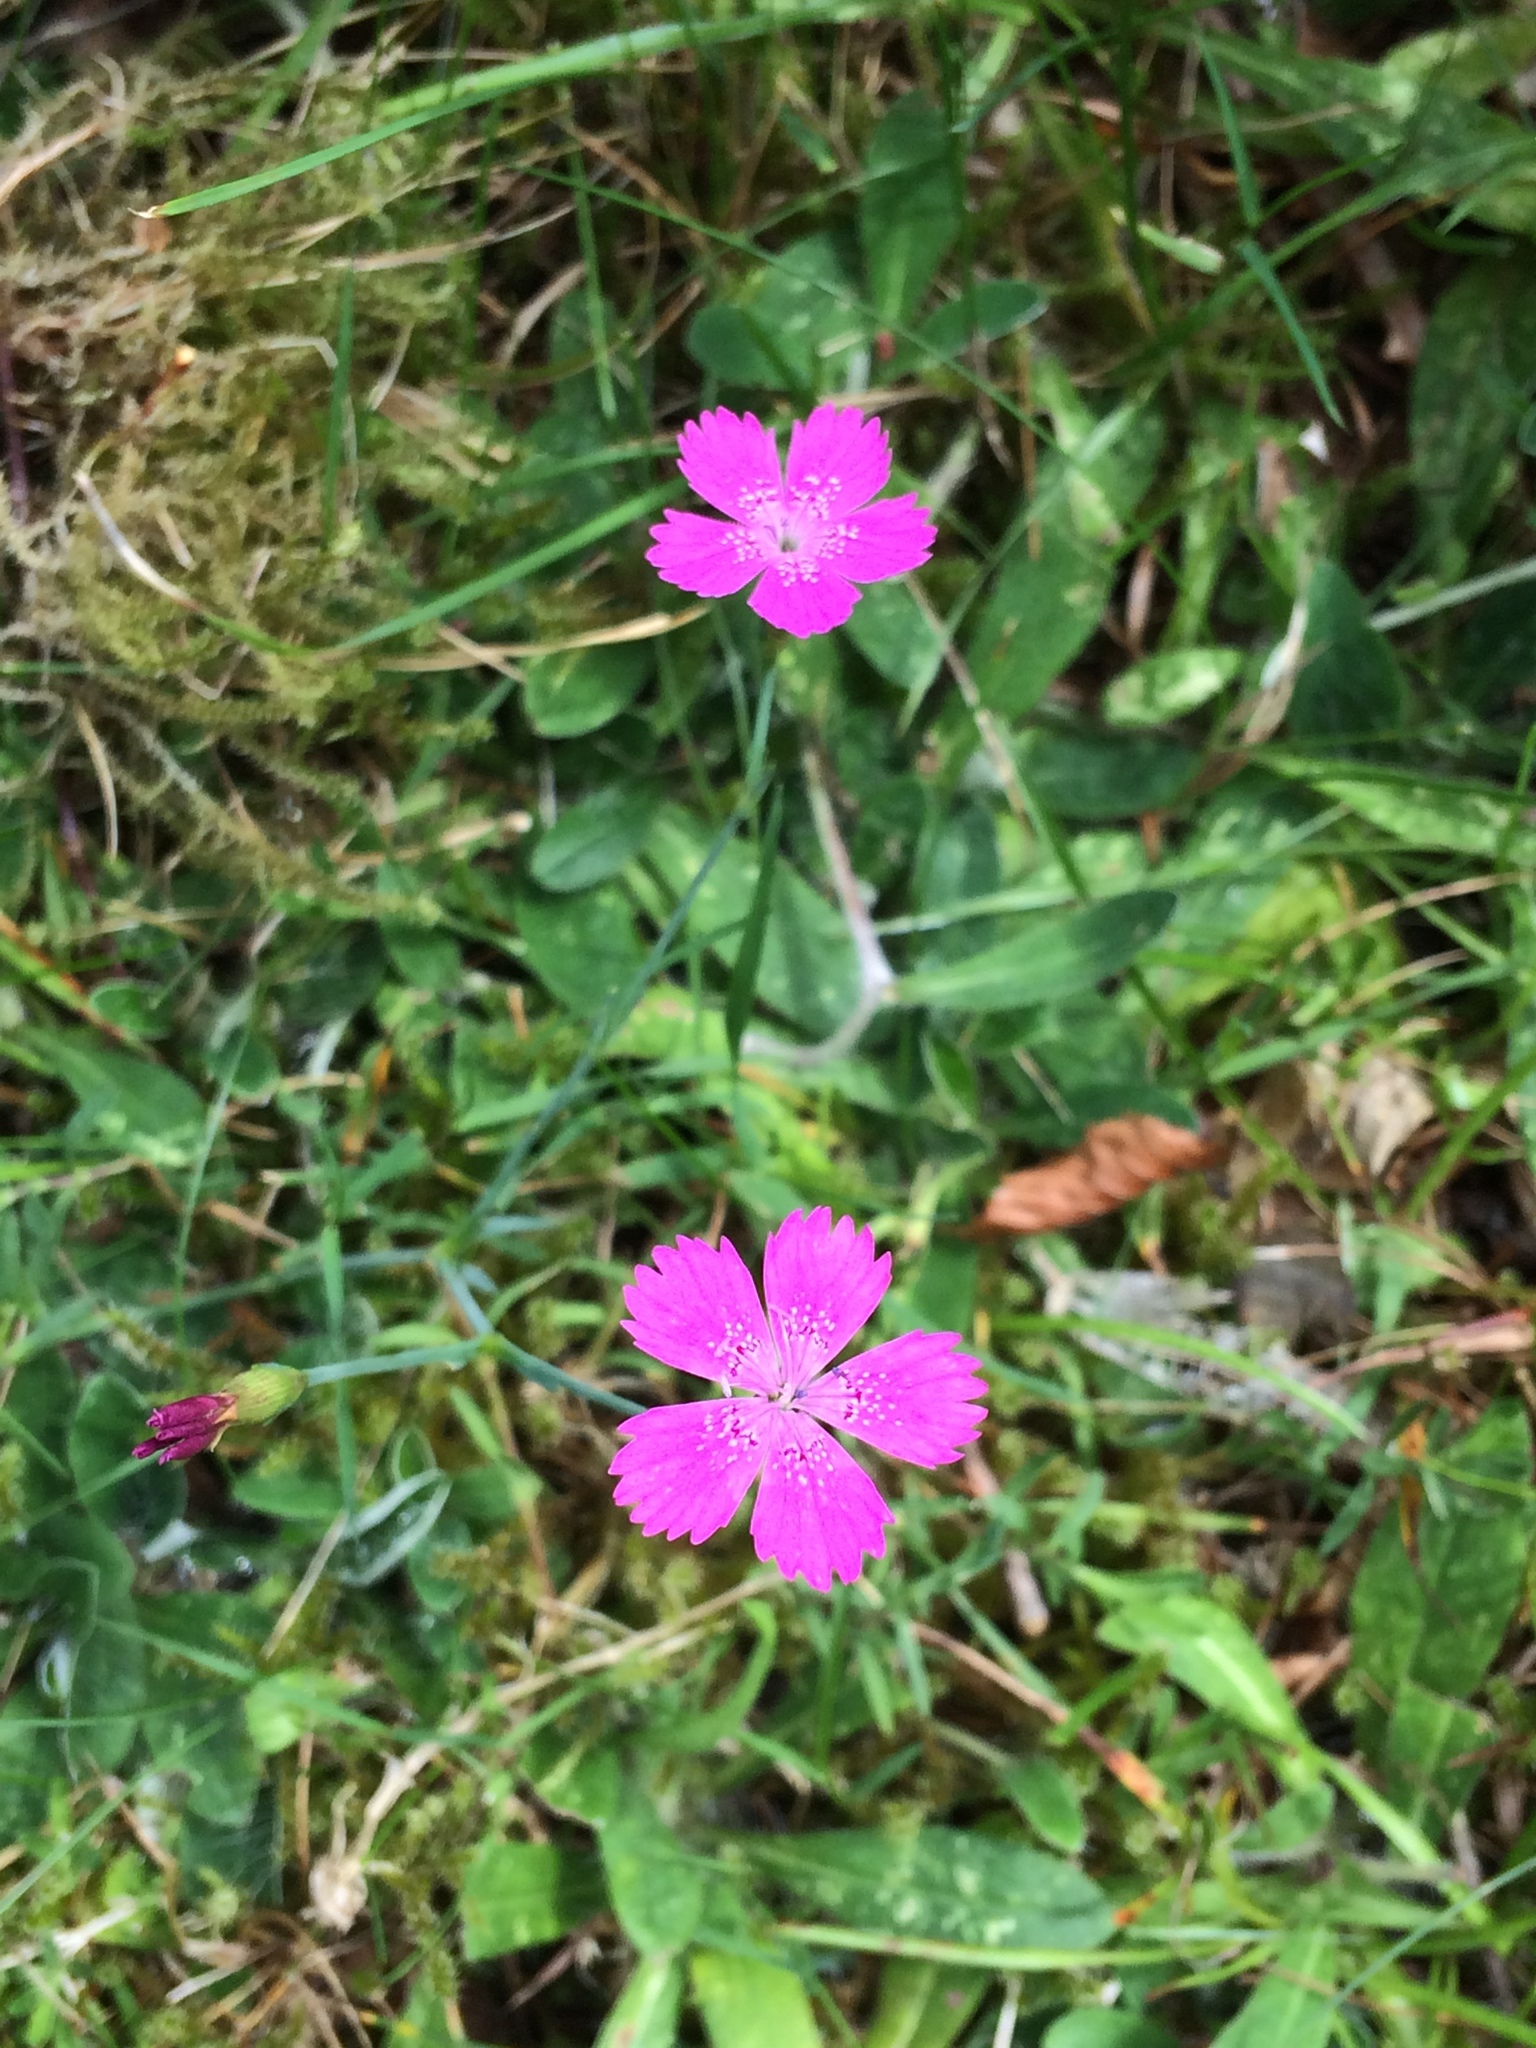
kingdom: Plantae
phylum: Tracheophyta
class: Magnoliopsida
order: Caryophyllales
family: Caryophyllaceae
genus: Dianthus
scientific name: Dianthus deltoides
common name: Maiden pink
